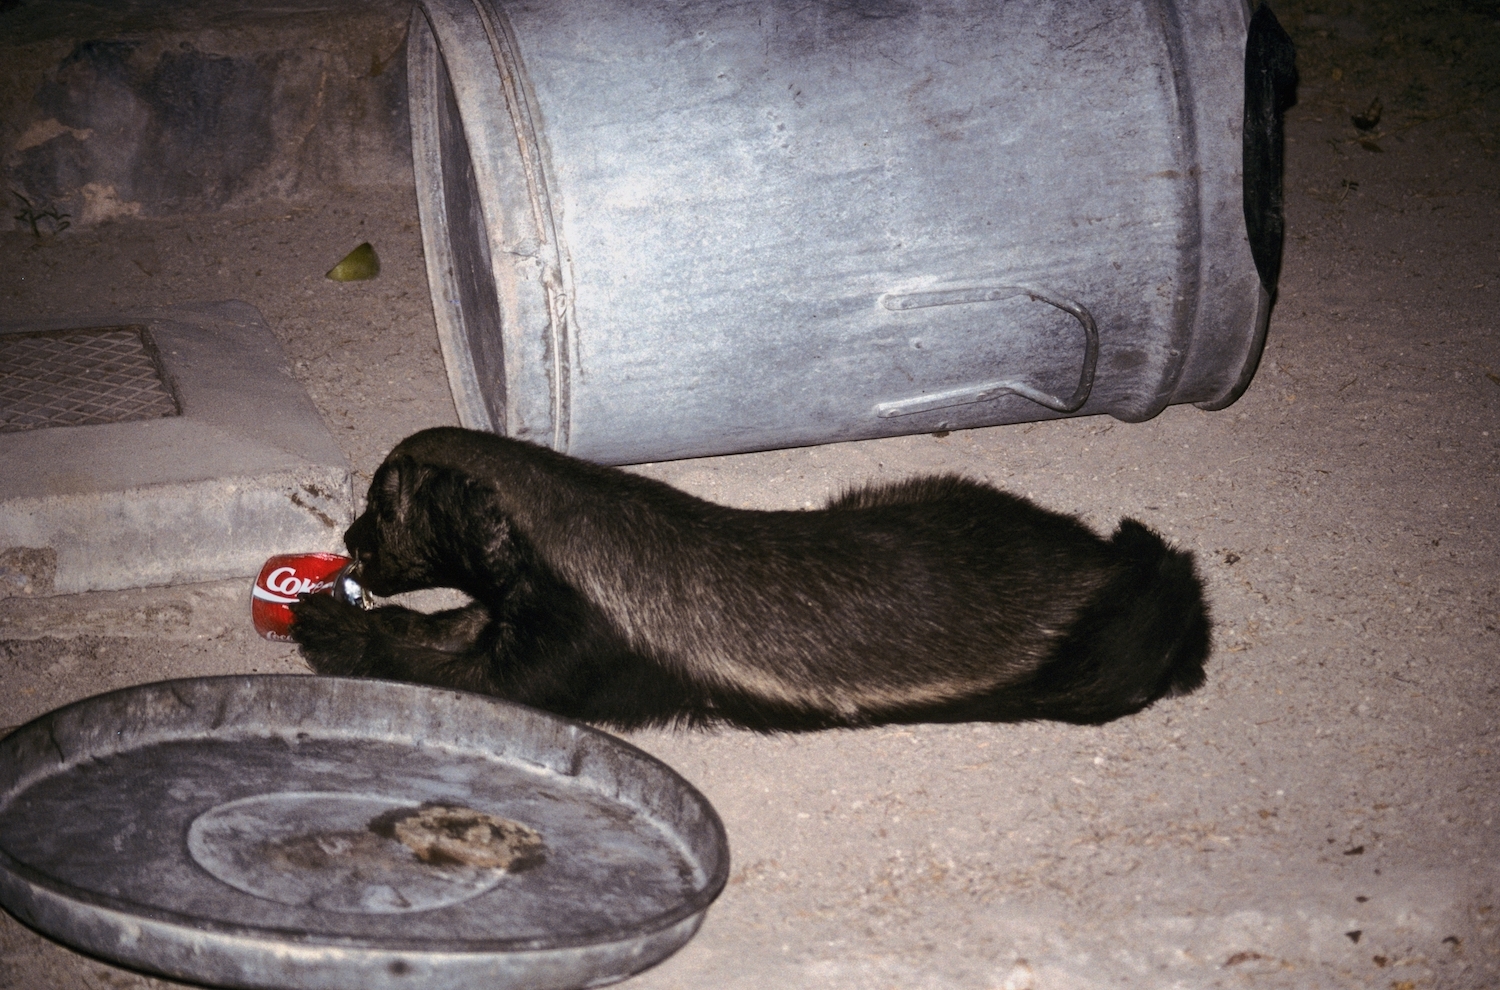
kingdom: Animalia
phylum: Chordata
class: Mammalia
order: Carnivora
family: Mustelidae
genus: Mellivora
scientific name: Mellivora capensis
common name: Honey badger
